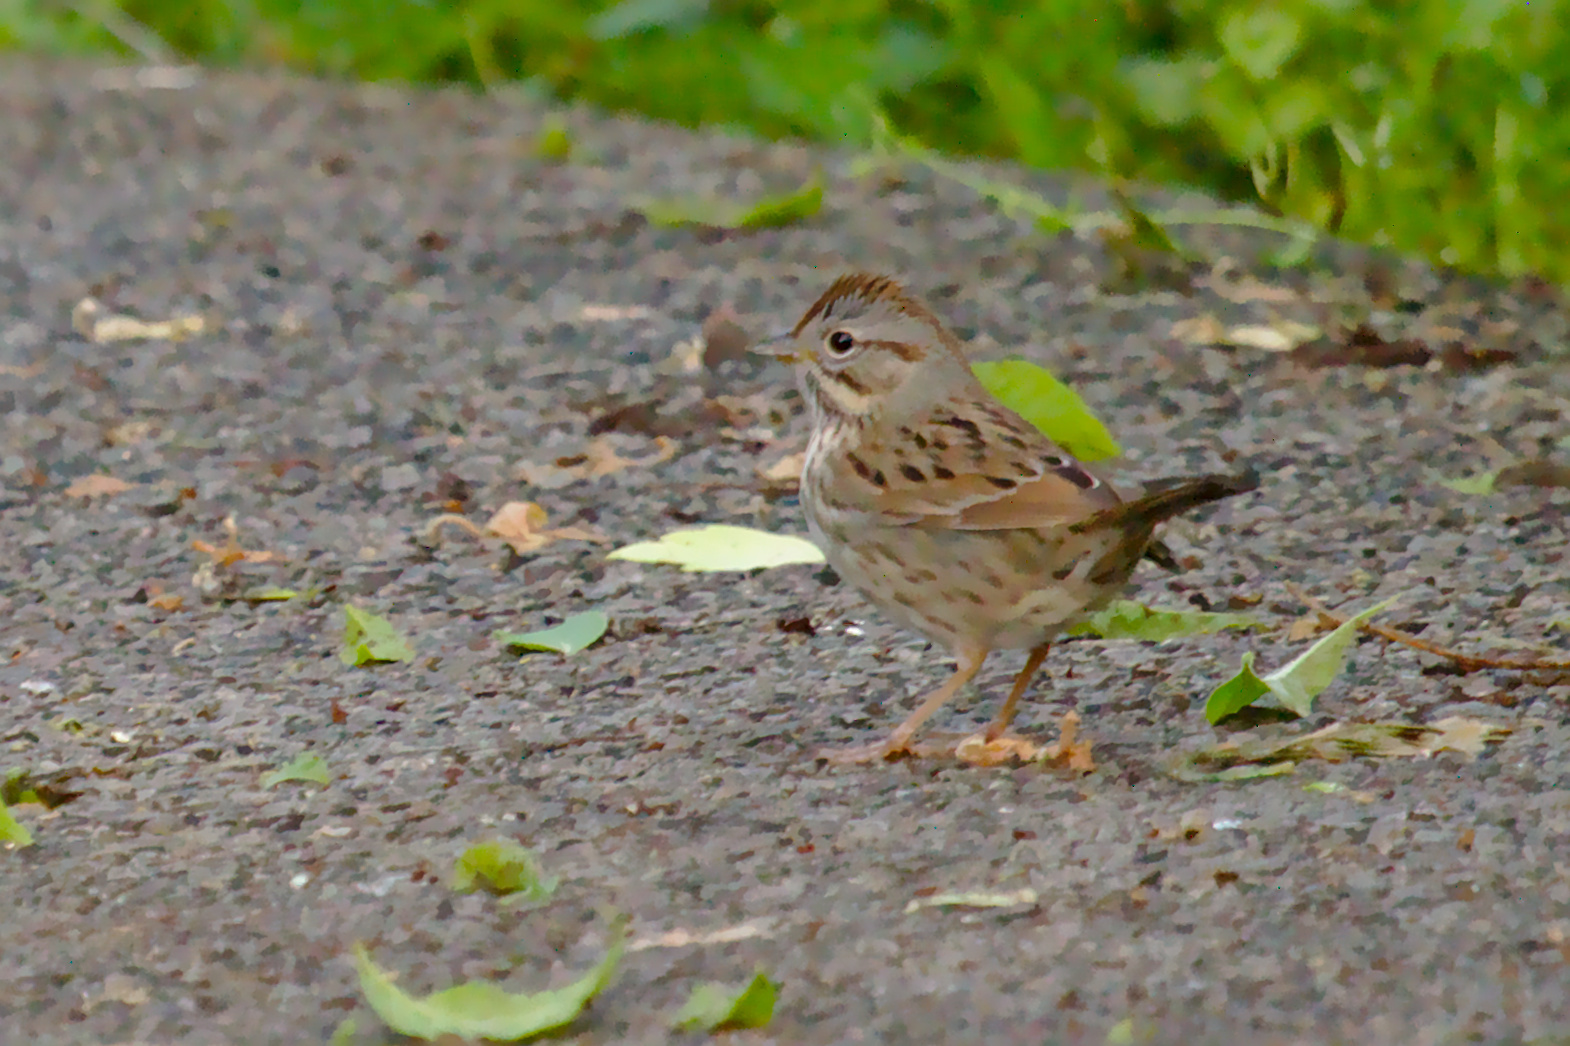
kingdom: Animalia
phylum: Chordata
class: Aves
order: Passeriformes
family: Passerellidae
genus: Melospiza
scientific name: Melospiza lincolnii
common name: Lincoln's sparrow
